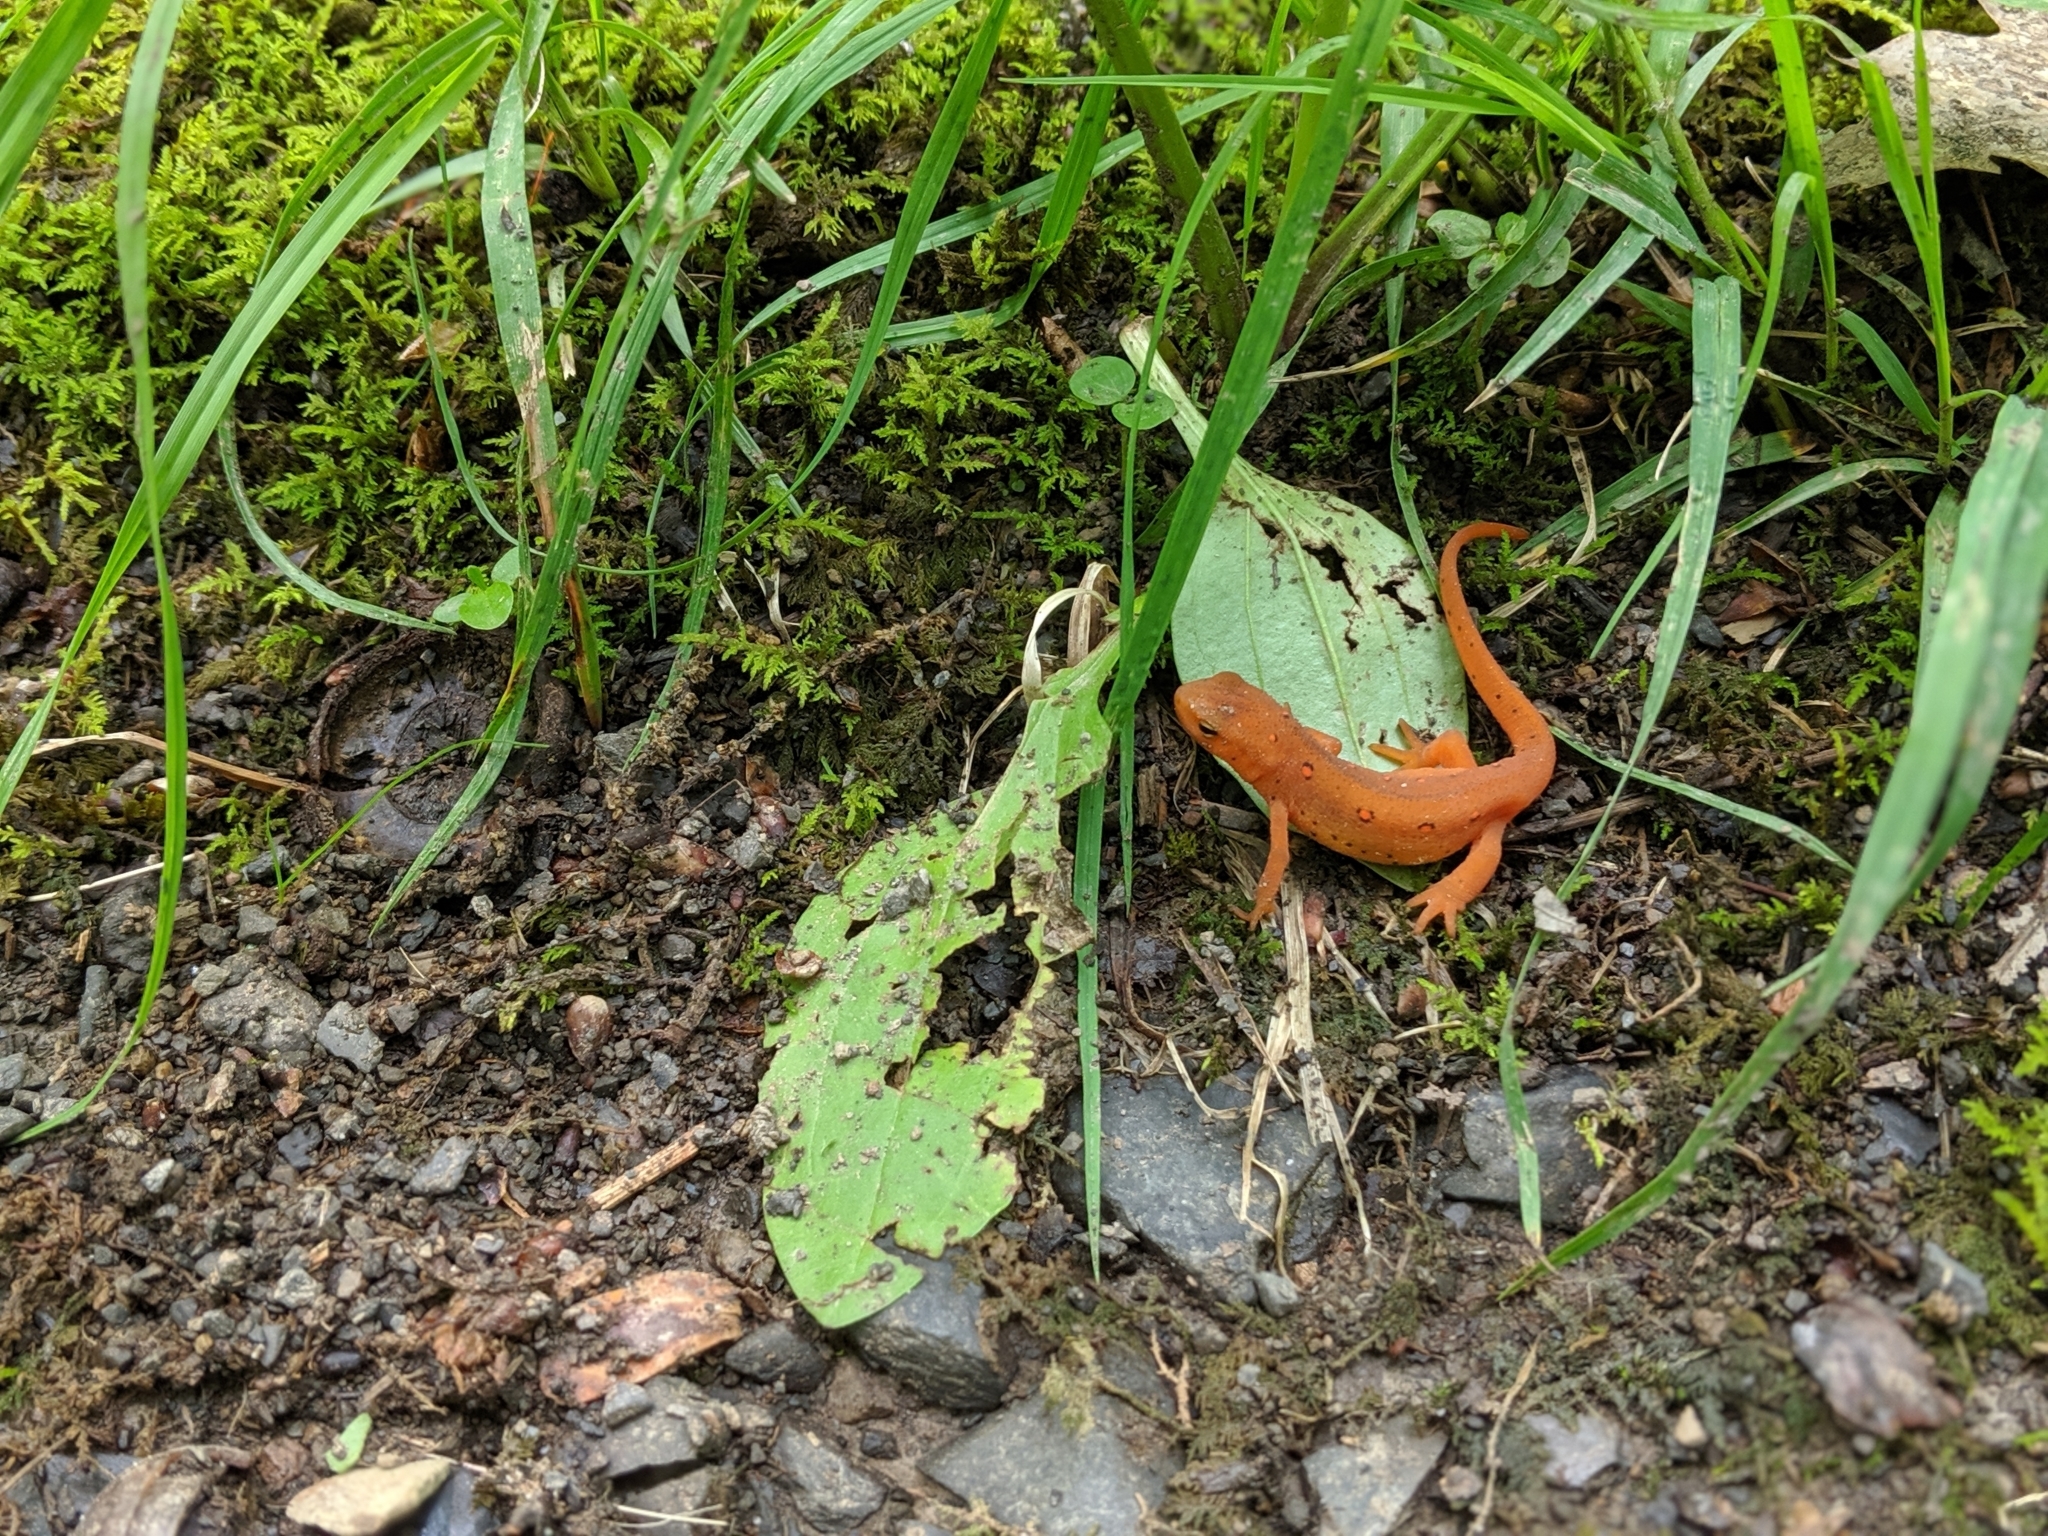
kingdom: Animalia
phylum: Chordata
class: Amphibia
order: Caudata
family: Salamandridae
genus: Notophthalmus
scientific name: Notophthalmus viridescens
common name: Eastern newt
